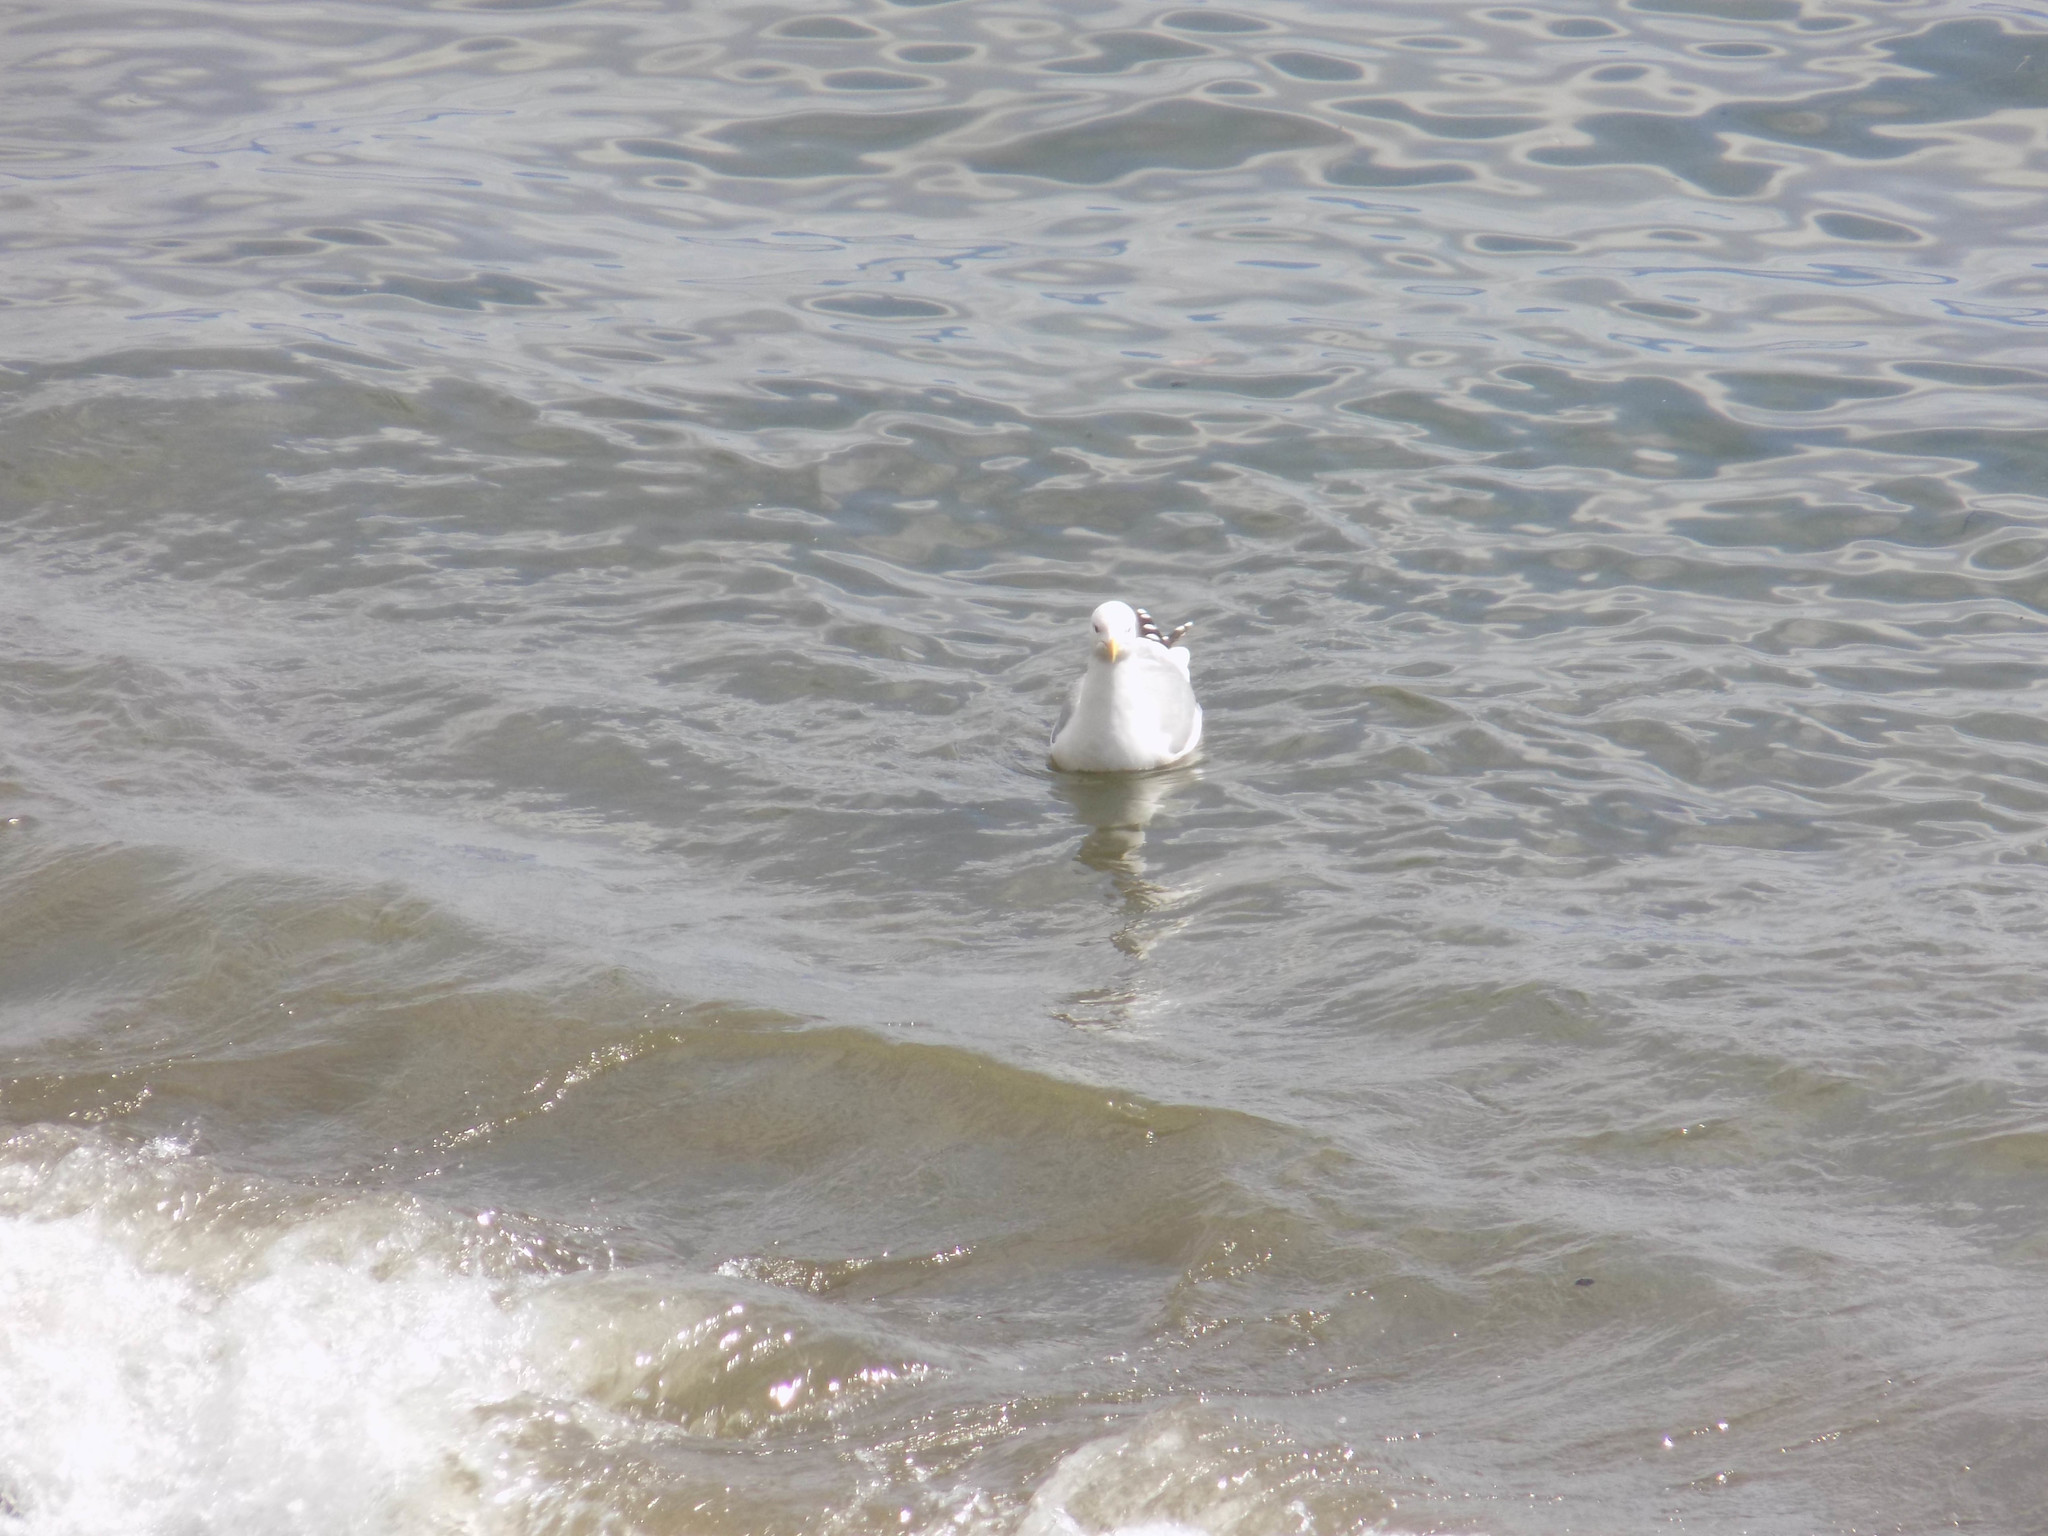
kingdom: Animalia
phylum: Chordata
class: Aves
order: Charadriiformes
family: Laridae
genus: Larus
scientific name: Larus vegae
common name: Vega gull
